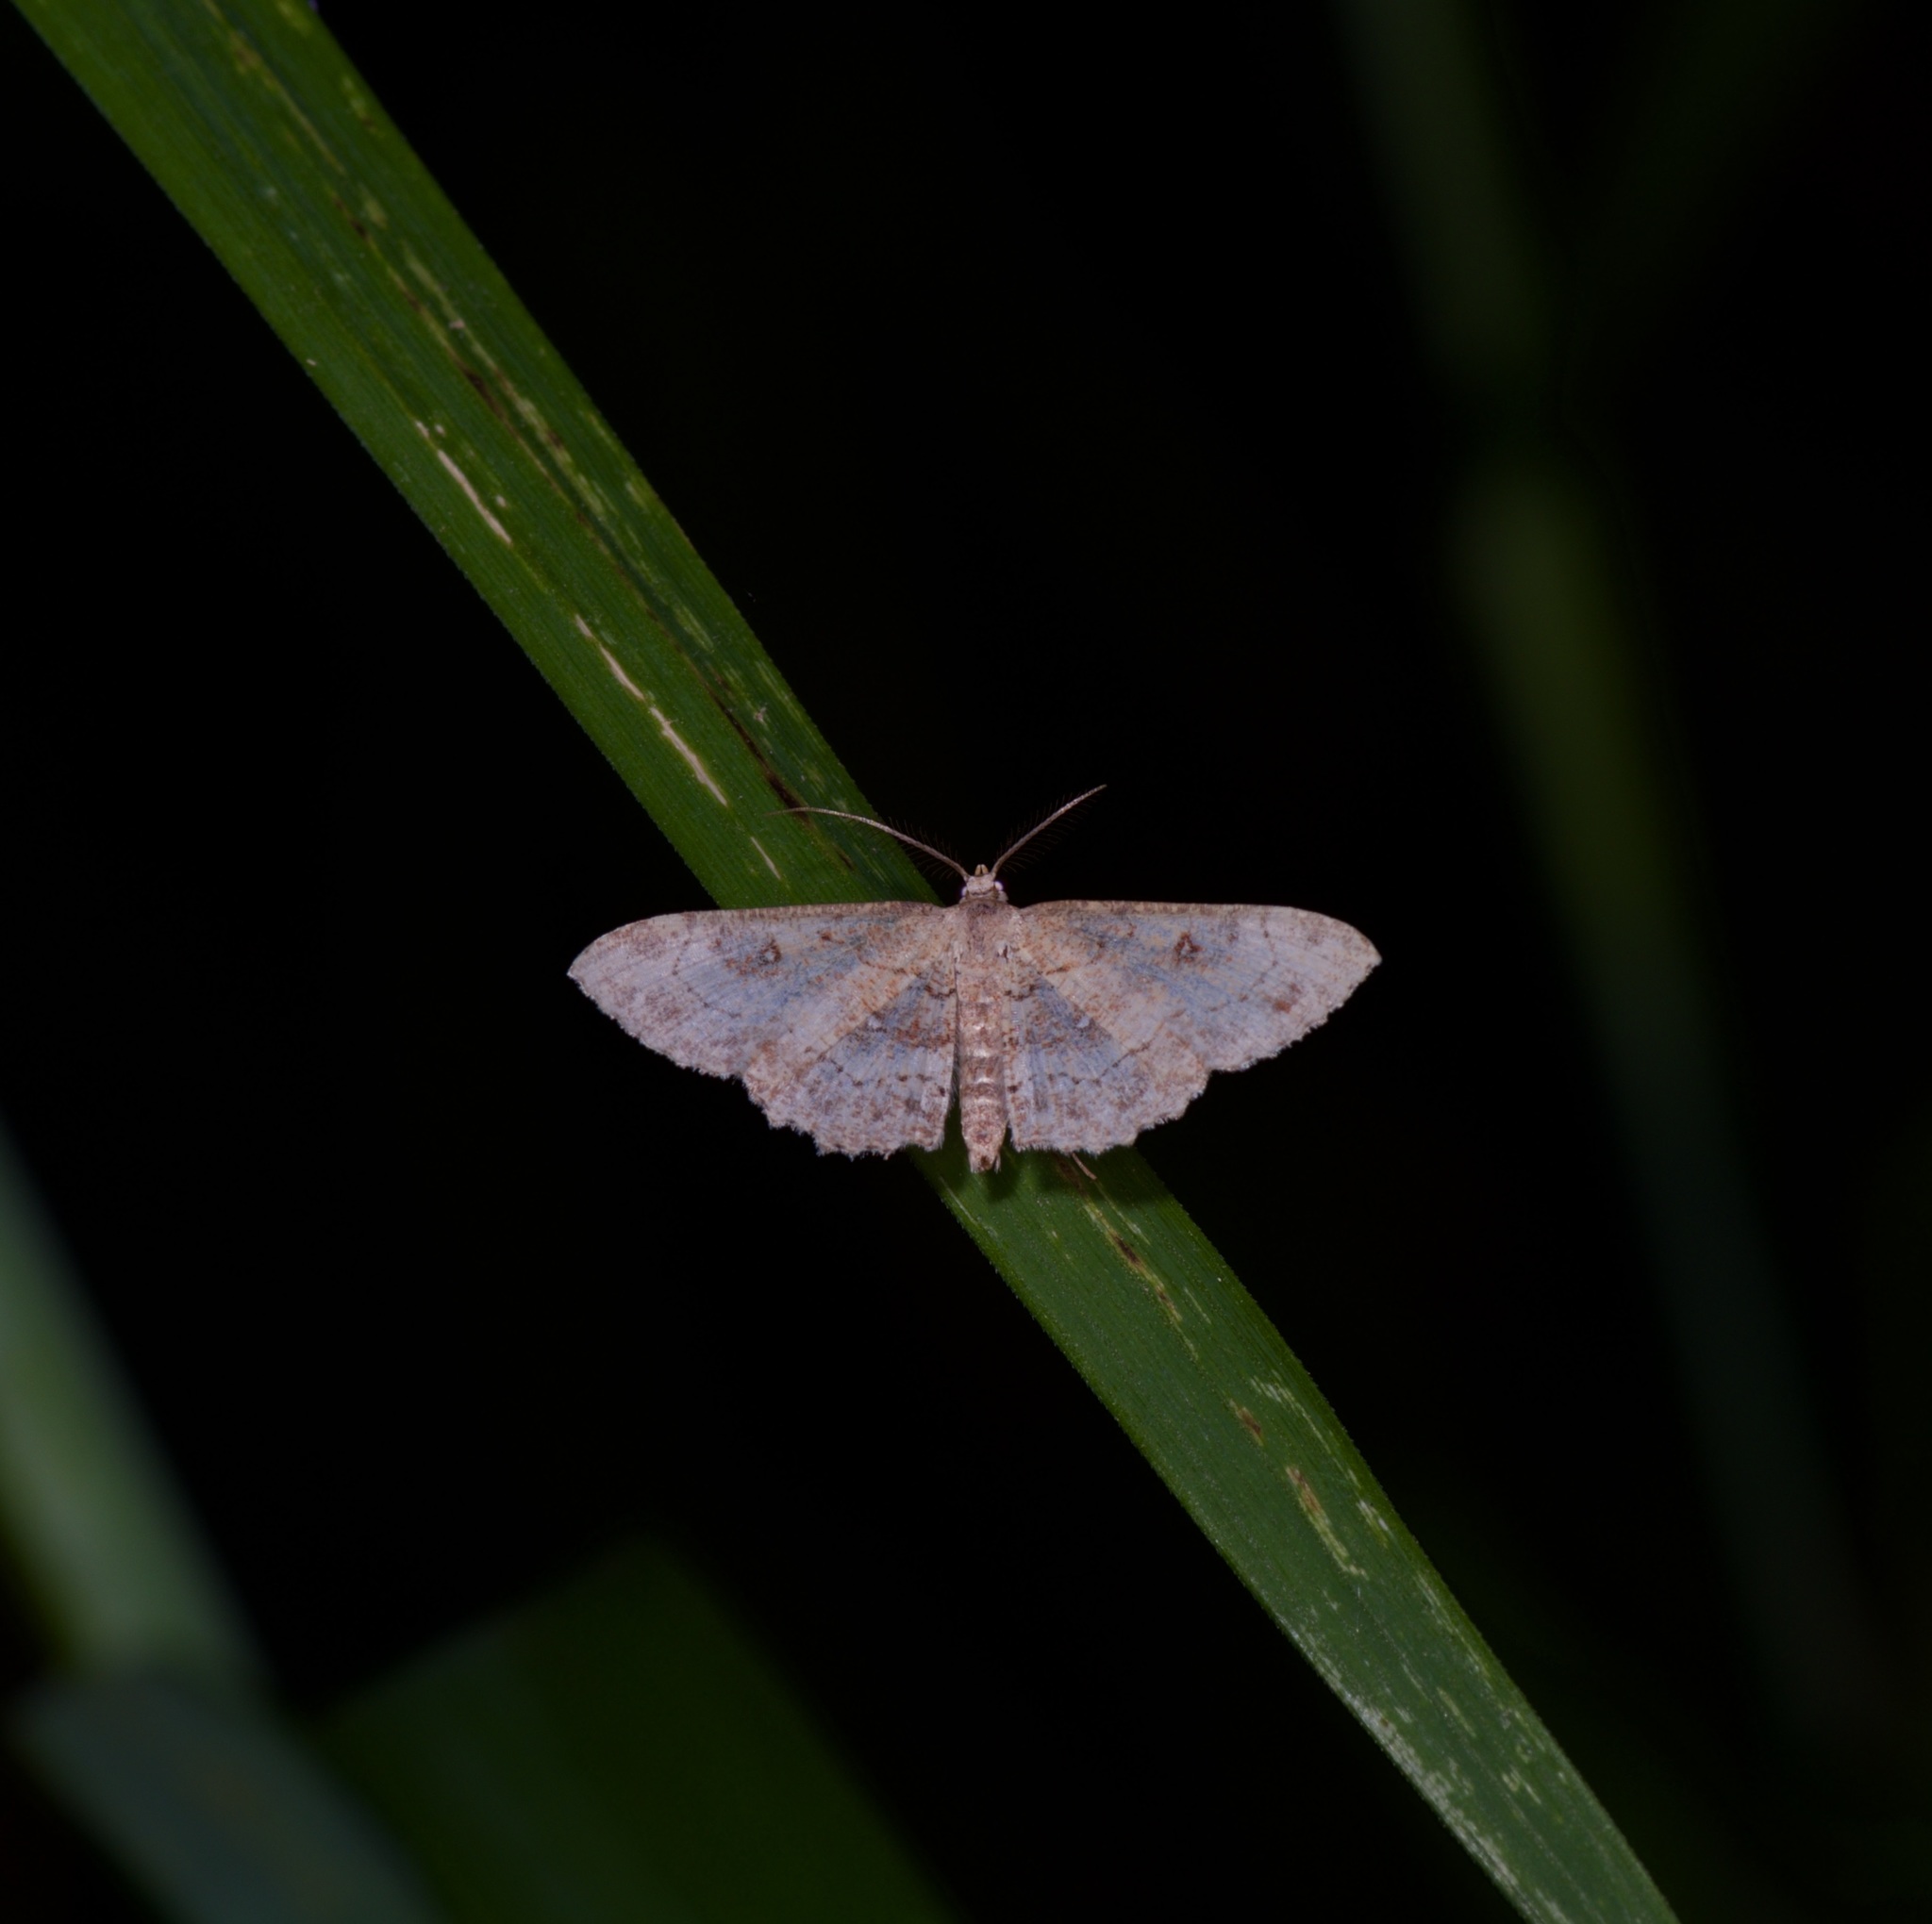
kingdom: Animalia
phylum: Arthropoda
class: Insecta
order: Lepidoptera
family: Geometridae
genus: Cyclophora
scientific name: Cyclophora nanaria
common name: Cankerworm
